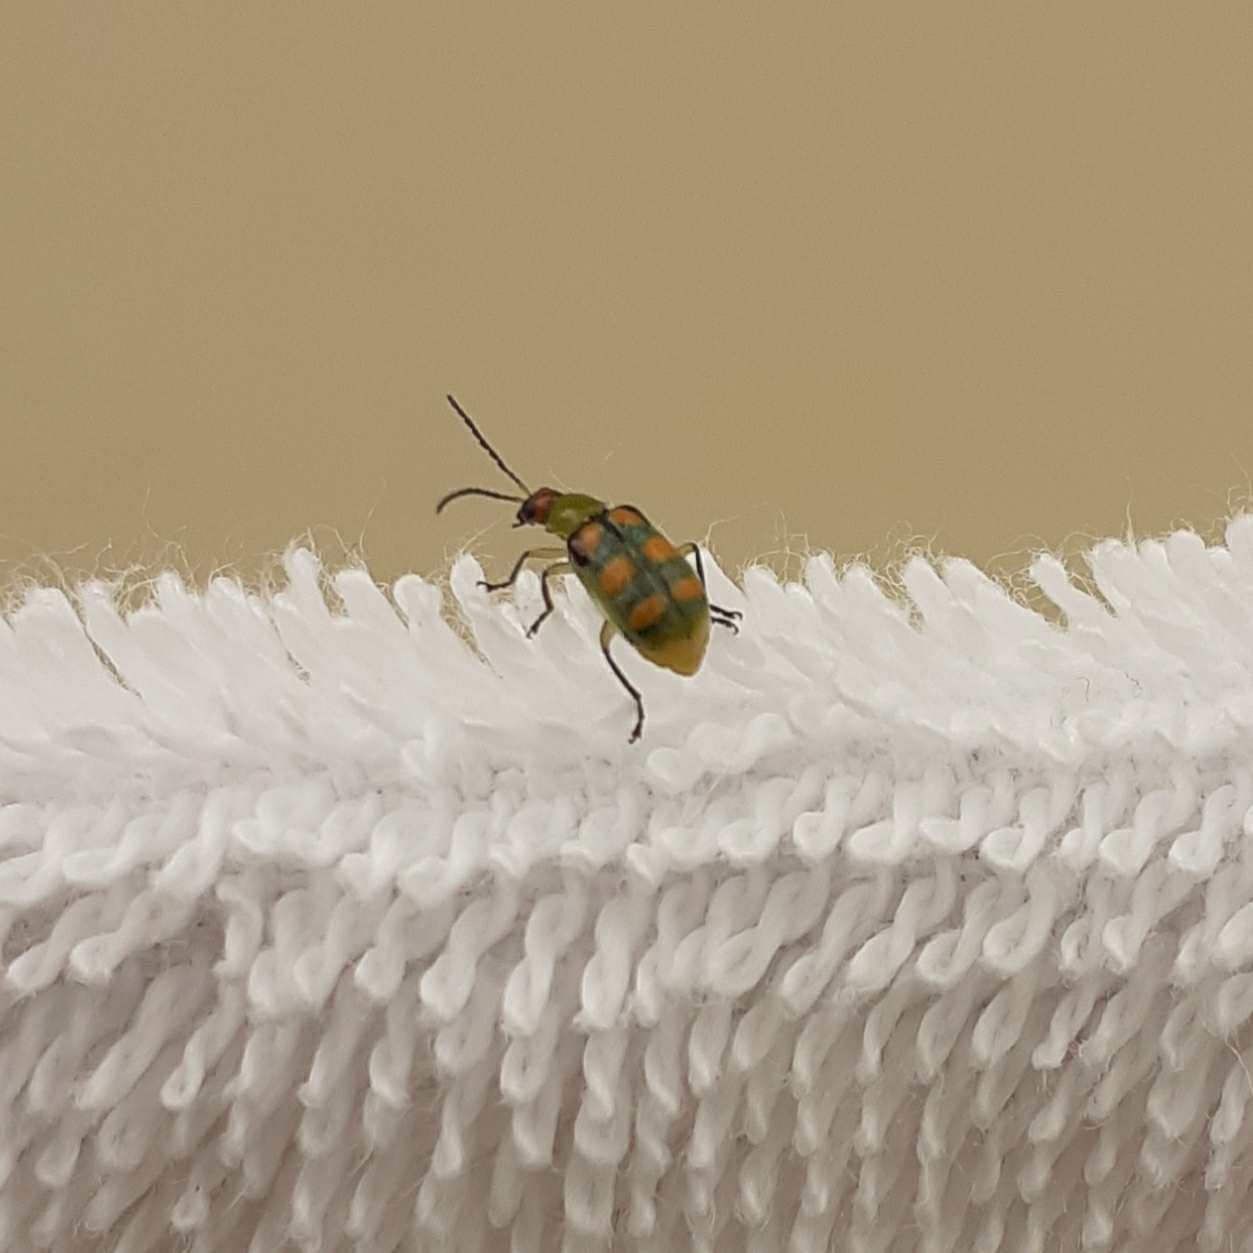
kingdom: Animalia
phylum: Arthropoda
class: Insecta
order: Coleoptera
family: Chrysomelidae
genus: Diabrotica
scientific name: Diabrotica speciosa
